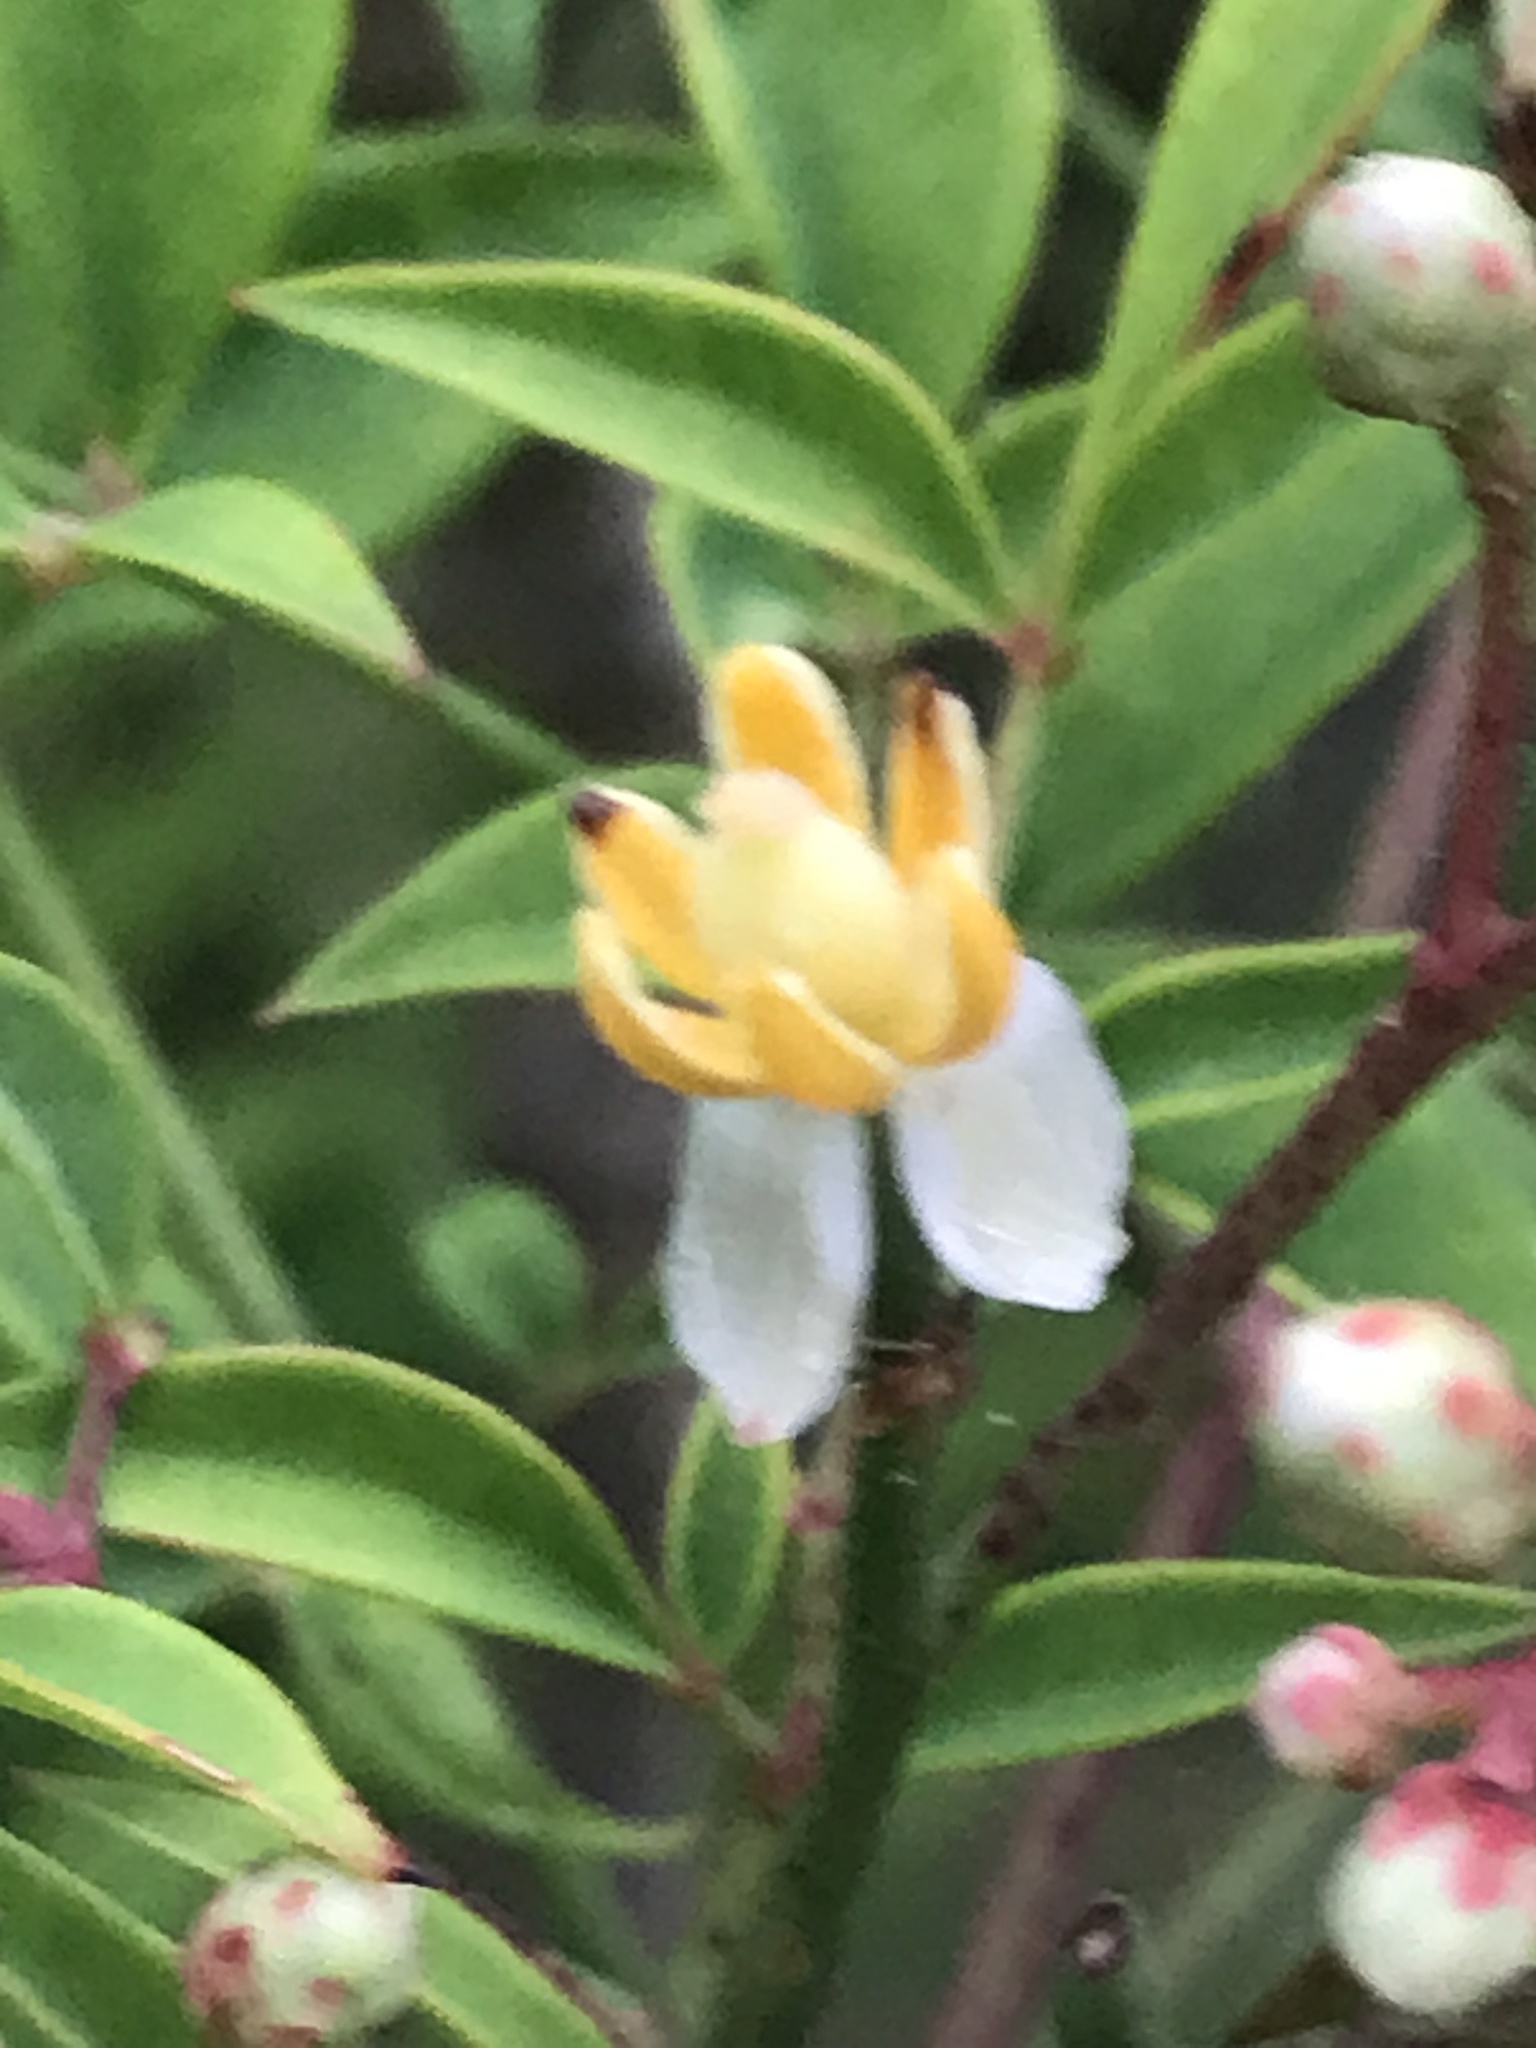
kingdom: Plantae
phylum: Tracheophyta
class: Magnoliopsida
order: Ranunculales
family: Berberidaceae
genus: Nandina
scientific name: Nandina domestica
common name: Sacred bamboo
